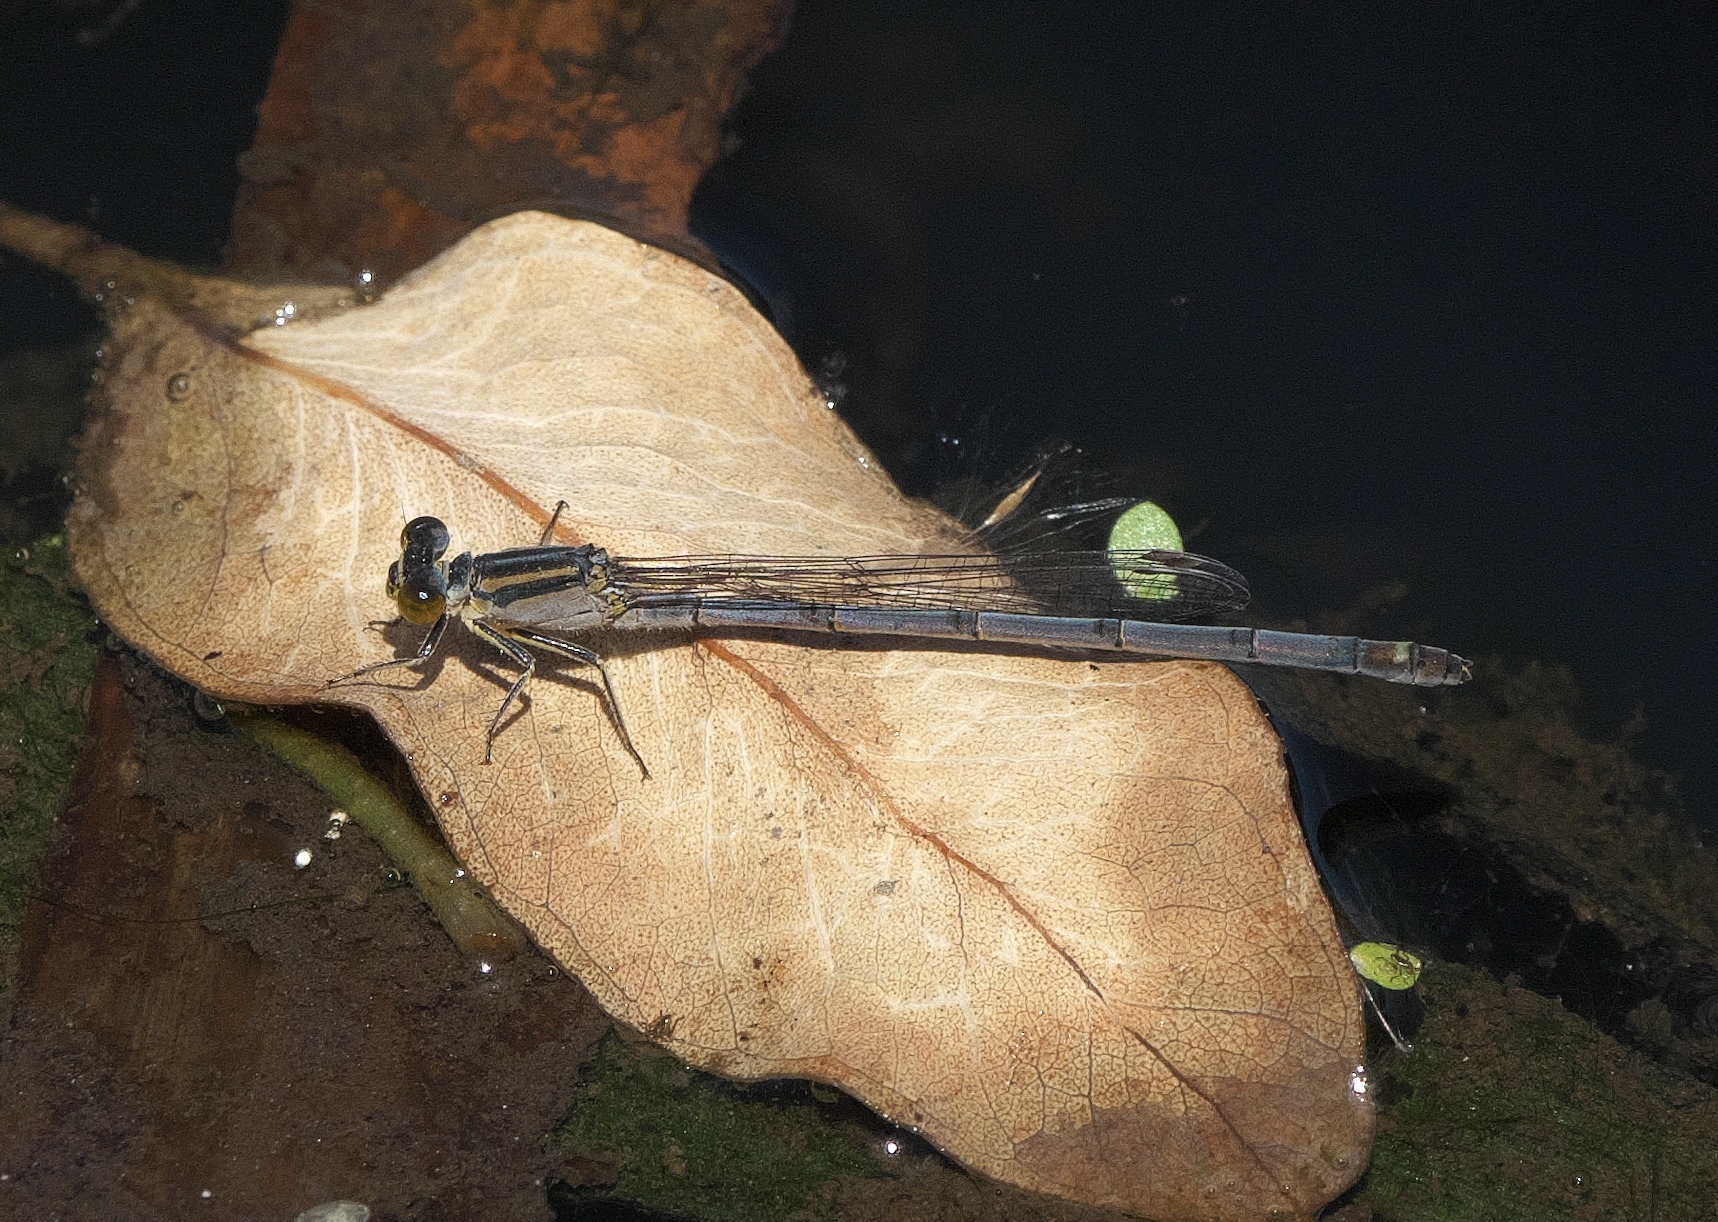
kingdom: Animalia
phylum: Arthropoda
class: Insecta
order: Odonata
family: Coenagrionidae
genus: Ischnura
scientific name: Ischnura heterosticta
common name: Common bluetail
